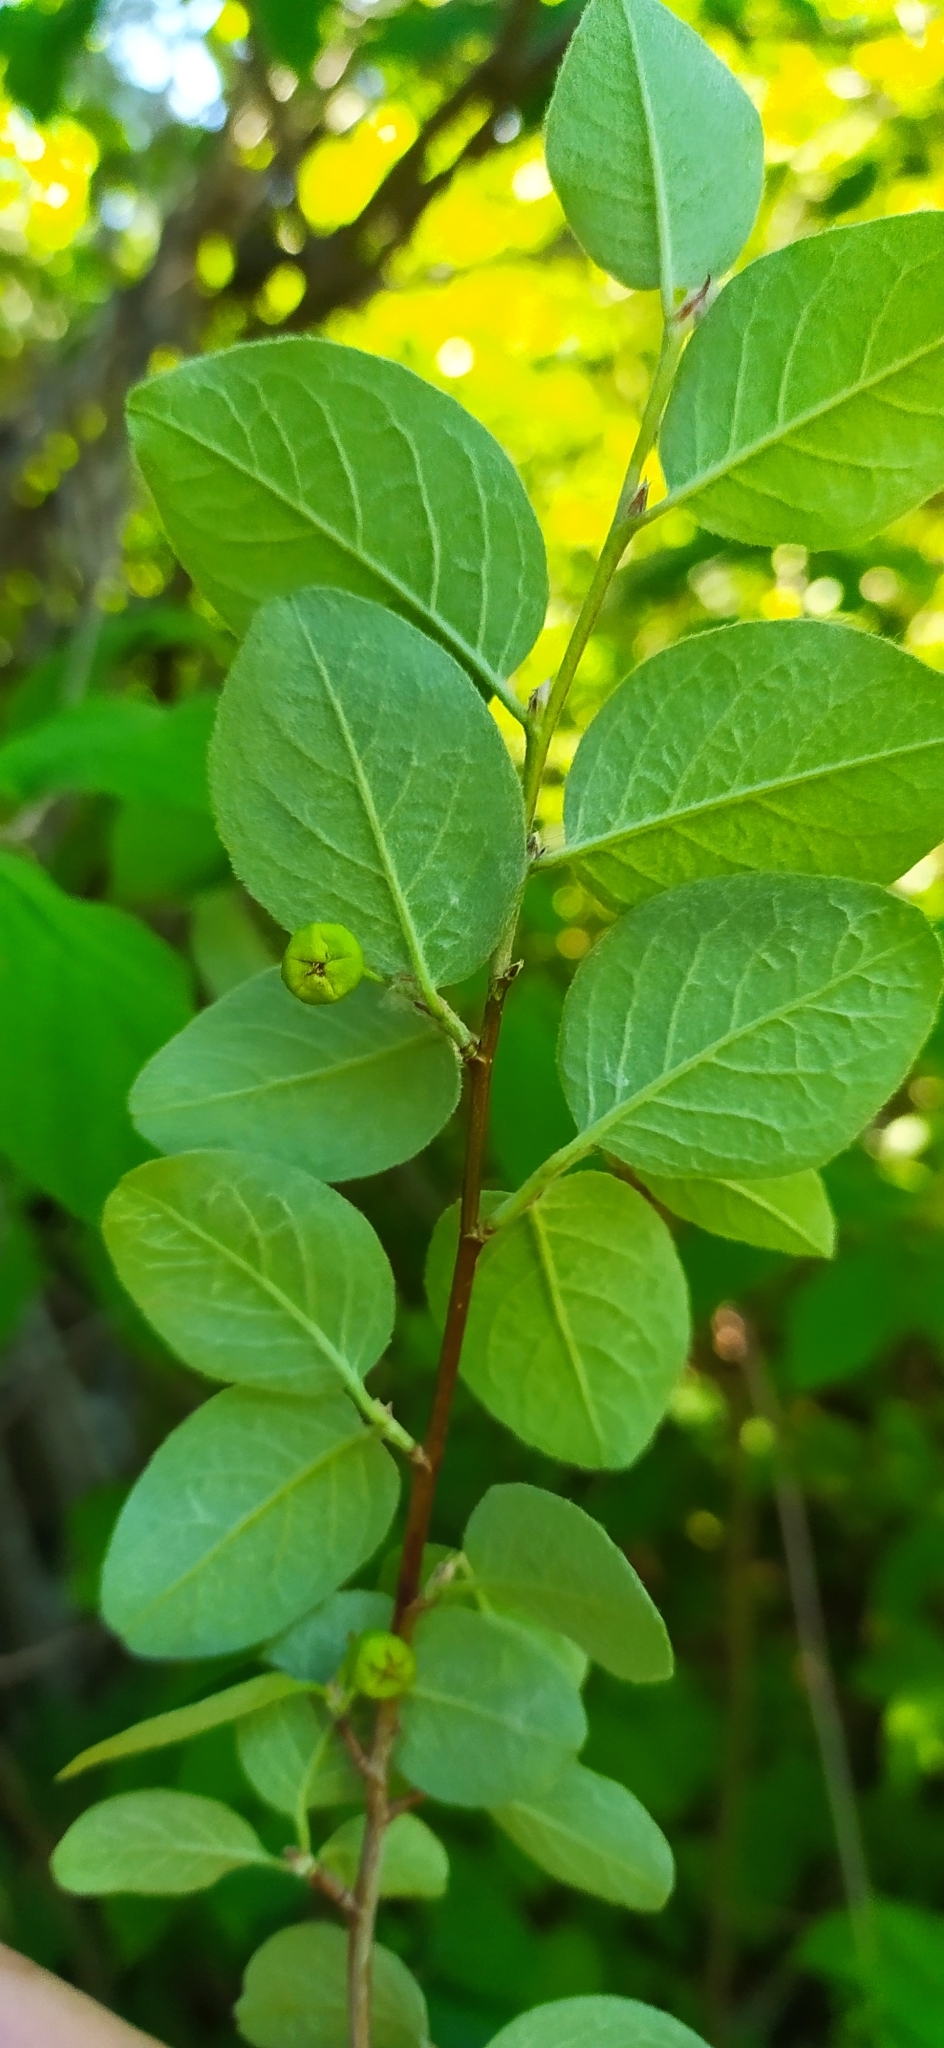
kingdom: Plantae
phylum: Tracheophyta
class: Magnoliopsida
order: Rosales
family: Rosaceae
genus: Cotoneaster
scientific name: Cotoneaster melanocarpus
